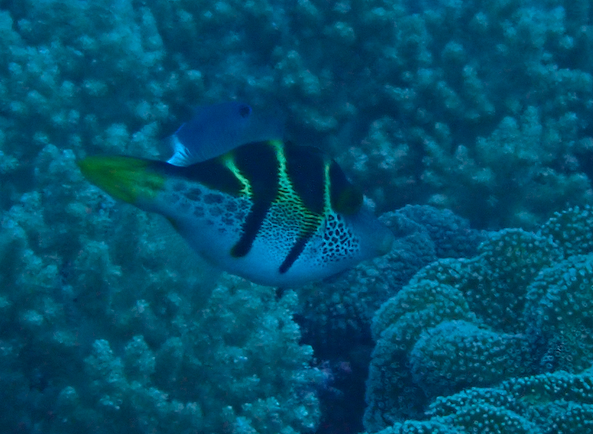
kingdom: Animalia
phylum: Chordata
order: Tetraodontiformes
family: Monacanthidae
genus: Paraluteres
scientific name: Paraluteres prionurus
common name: Black-saddled leatherjacket
